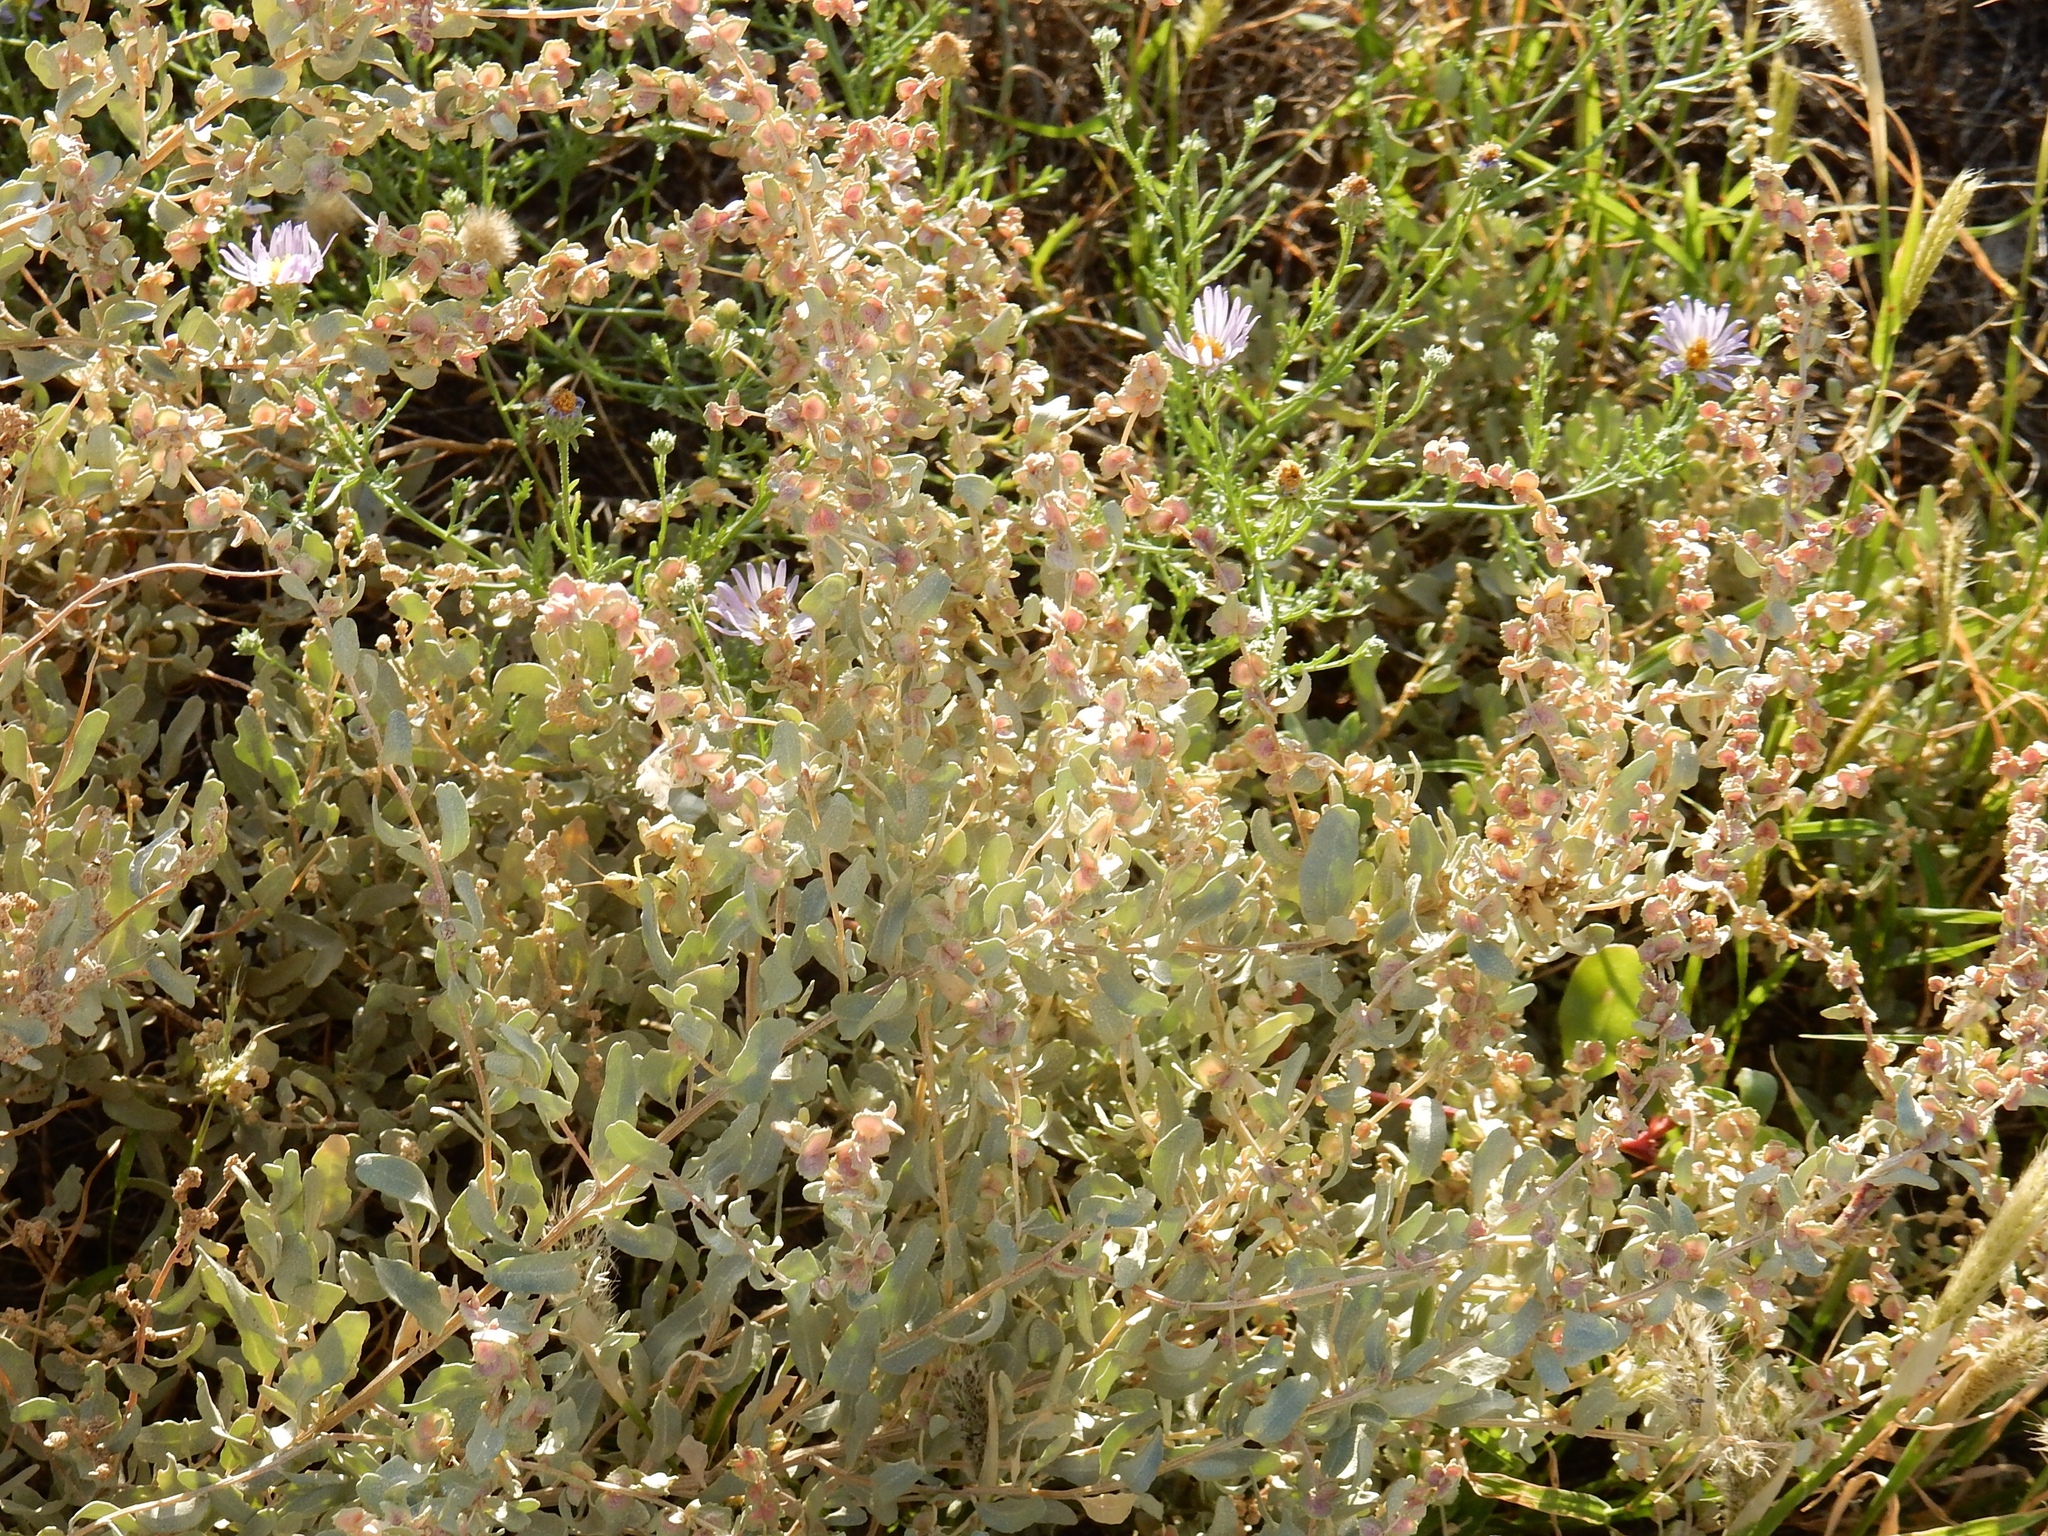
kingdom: Plantae
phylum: Tracheophyta
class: Magnoliopsida
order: Caryophyllales
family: Amaranthaceae
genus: Atriplex
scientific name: Atriplex lentiformis
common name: Big saltbush
